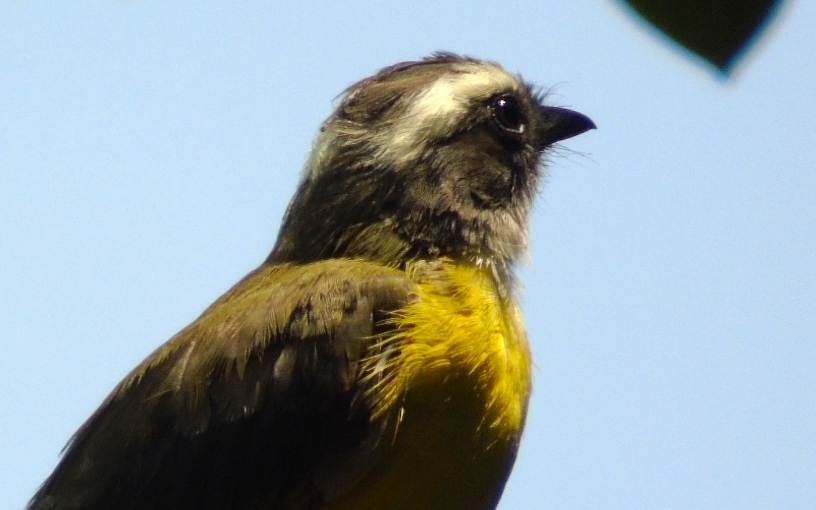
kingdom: Animalia
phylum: Chordata
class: Aves
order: Passeriformes
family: Tyrannidae
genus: Myiozetetes
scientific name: Myiozetetes similis
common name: Social flycatcher
